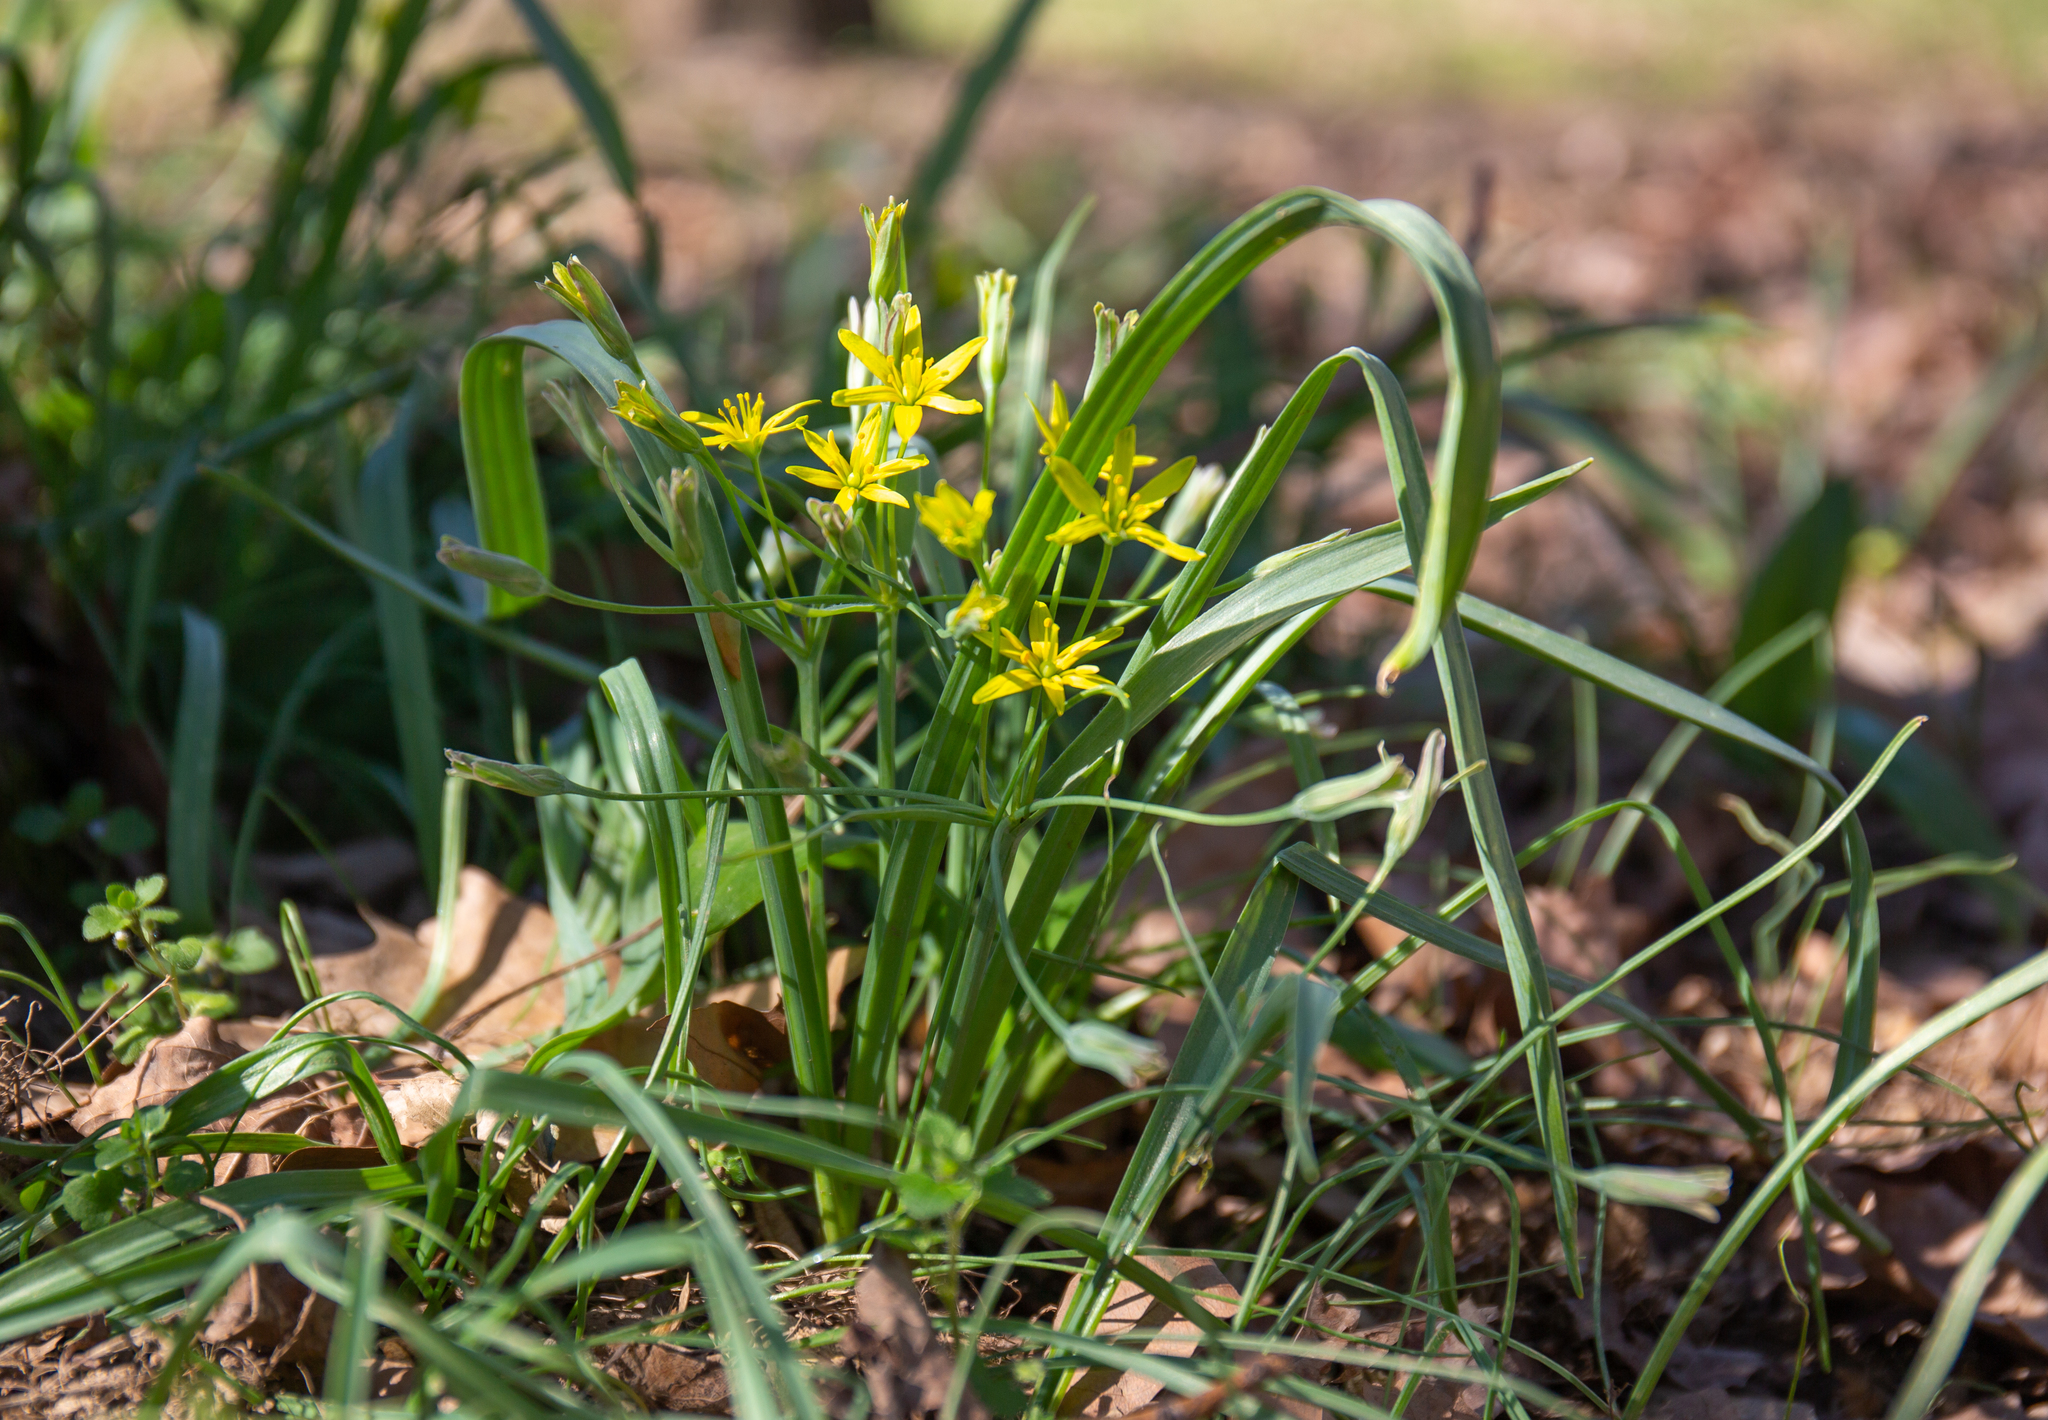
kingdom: Plantae
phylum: Tracheophyta
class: Liliopsida
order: Liliales
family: Liliaceae
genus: Gagea
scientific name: Gagea lutea
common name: Yellow star-of-bethlehem
